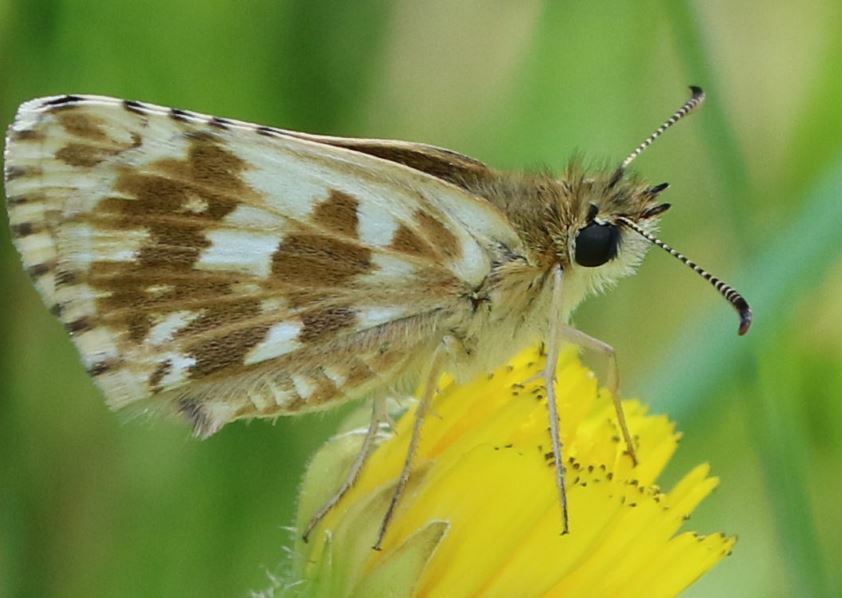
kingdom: Animalia
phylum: Arthropoda
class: Insecta
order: Lepidoptera
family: Hesperiidae
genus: Pyrgus
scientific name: Pyrgus armoricanus
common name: Oberthür's grizzled skipper
